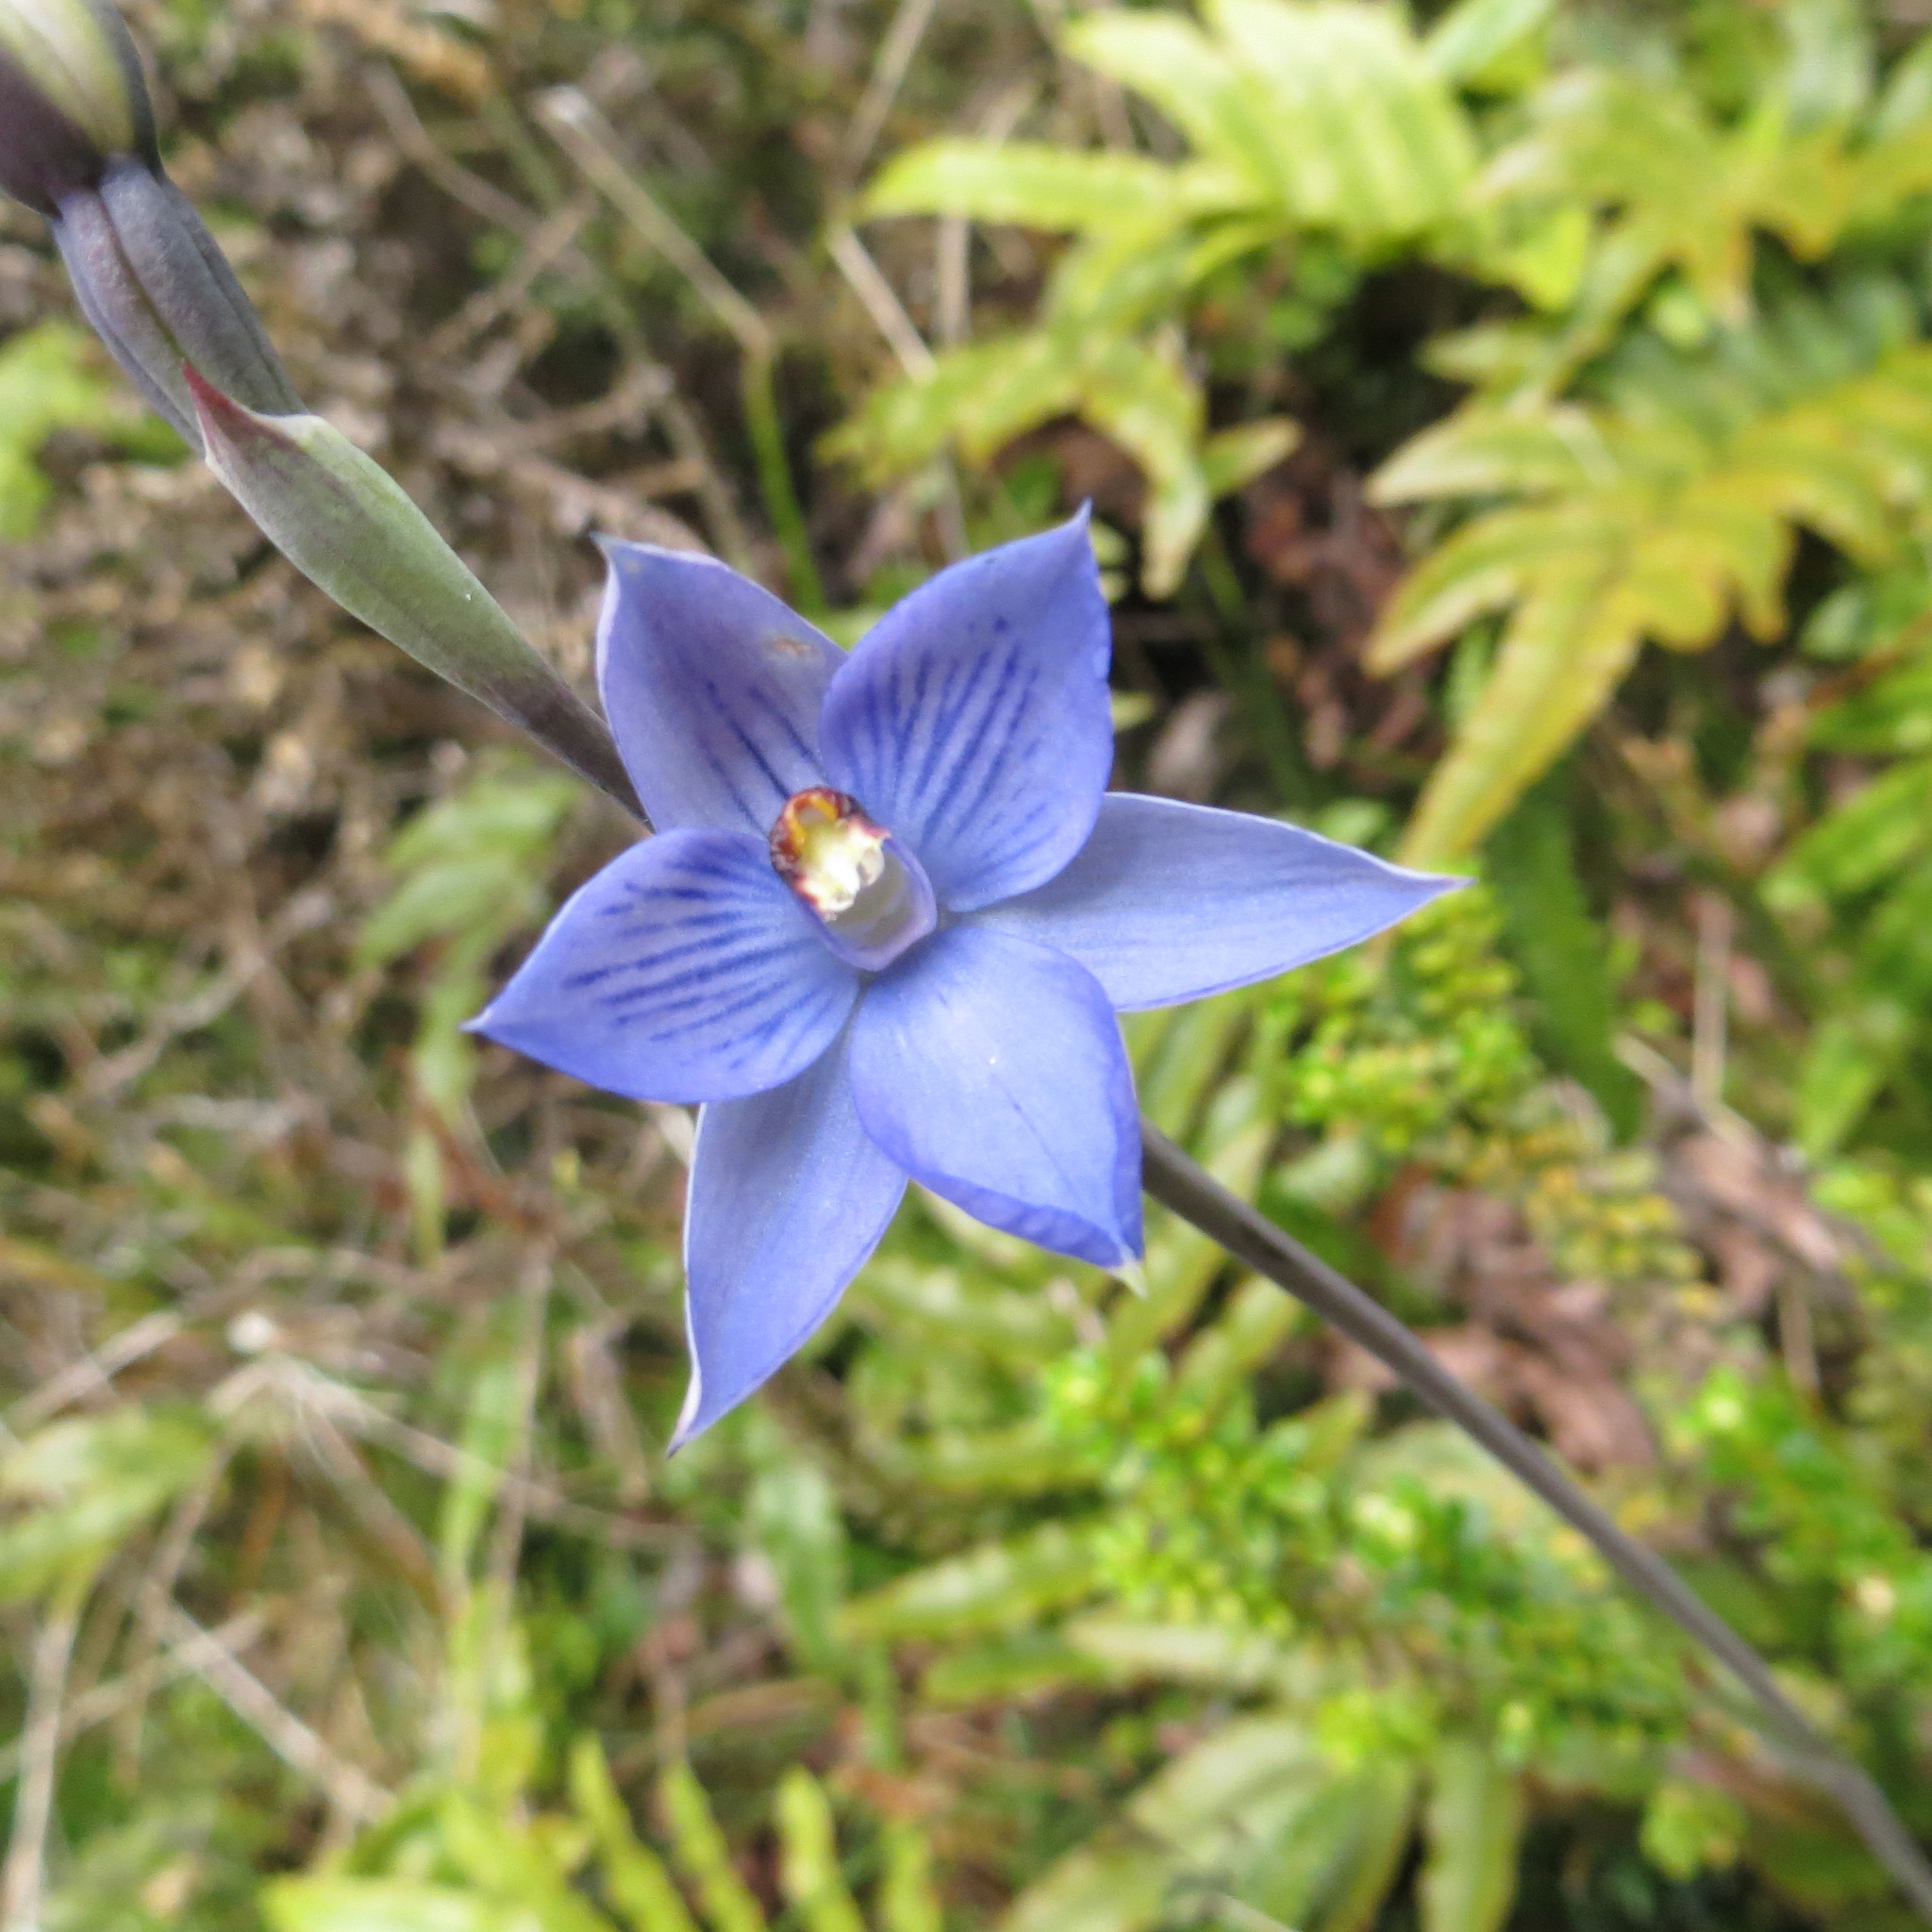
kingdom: Plantae
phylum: Tracheophyta
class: Liliopsida
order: Asparagales
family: Orchidaceae
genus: Thelymitra
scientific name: Thelymitra pulchella
